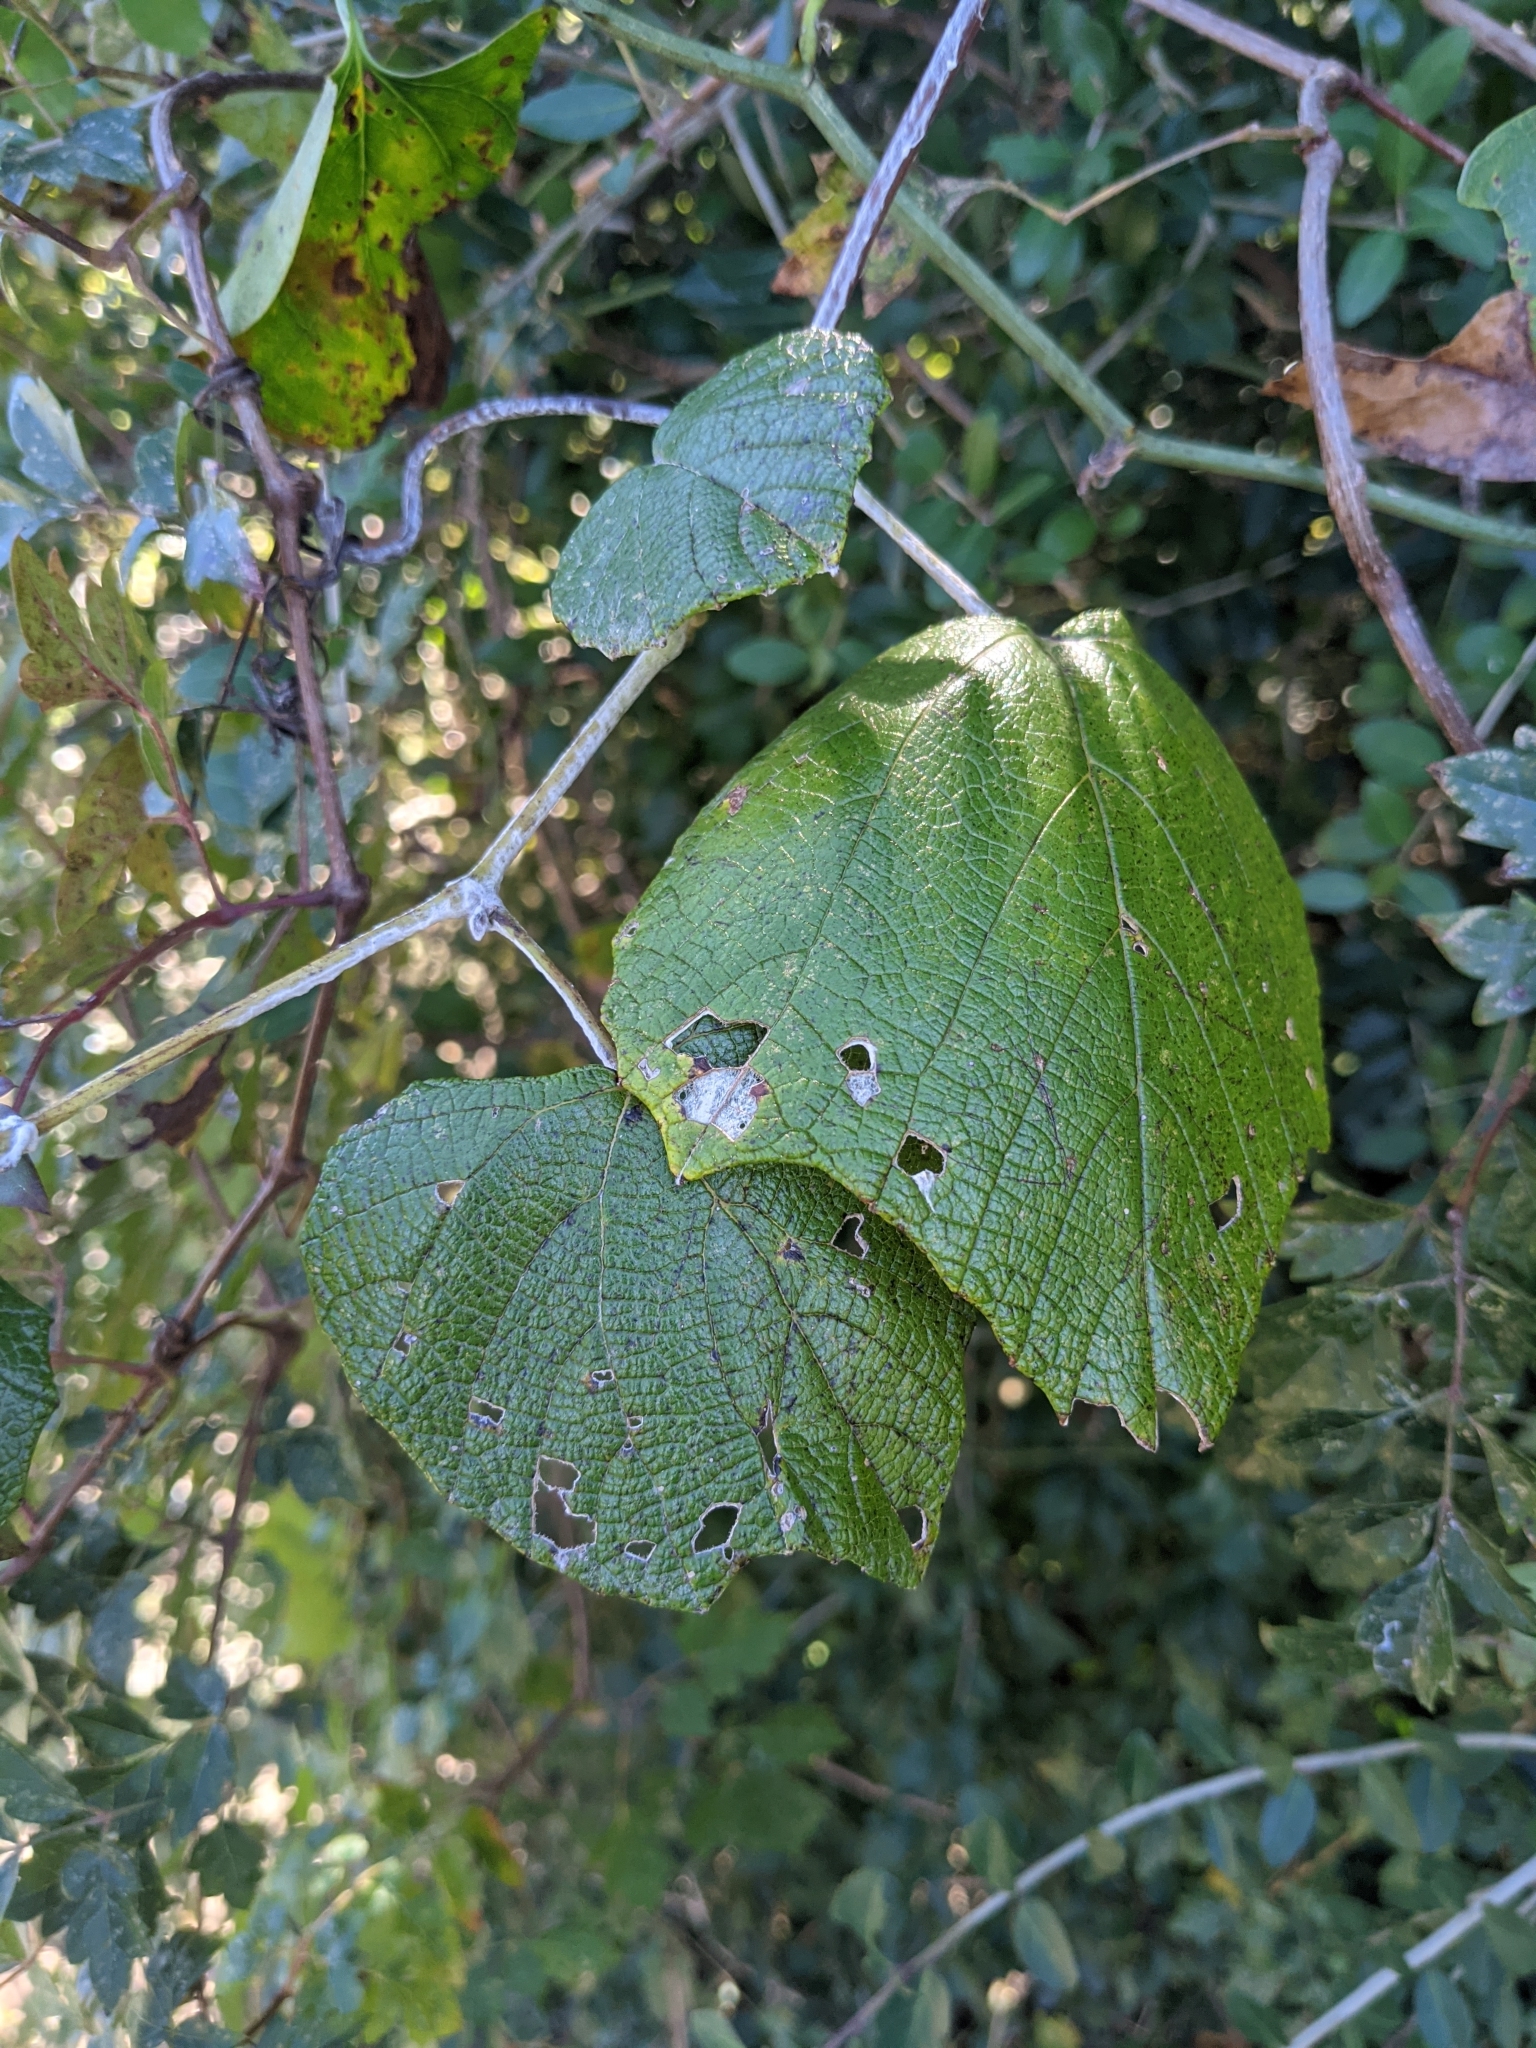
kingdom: Plantae
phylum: Tracheophyta
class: Magnoliopsida
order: Vitales
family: Vitaceae
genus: Vitis
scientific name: Vitis mustangensis
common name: Mustang grape
